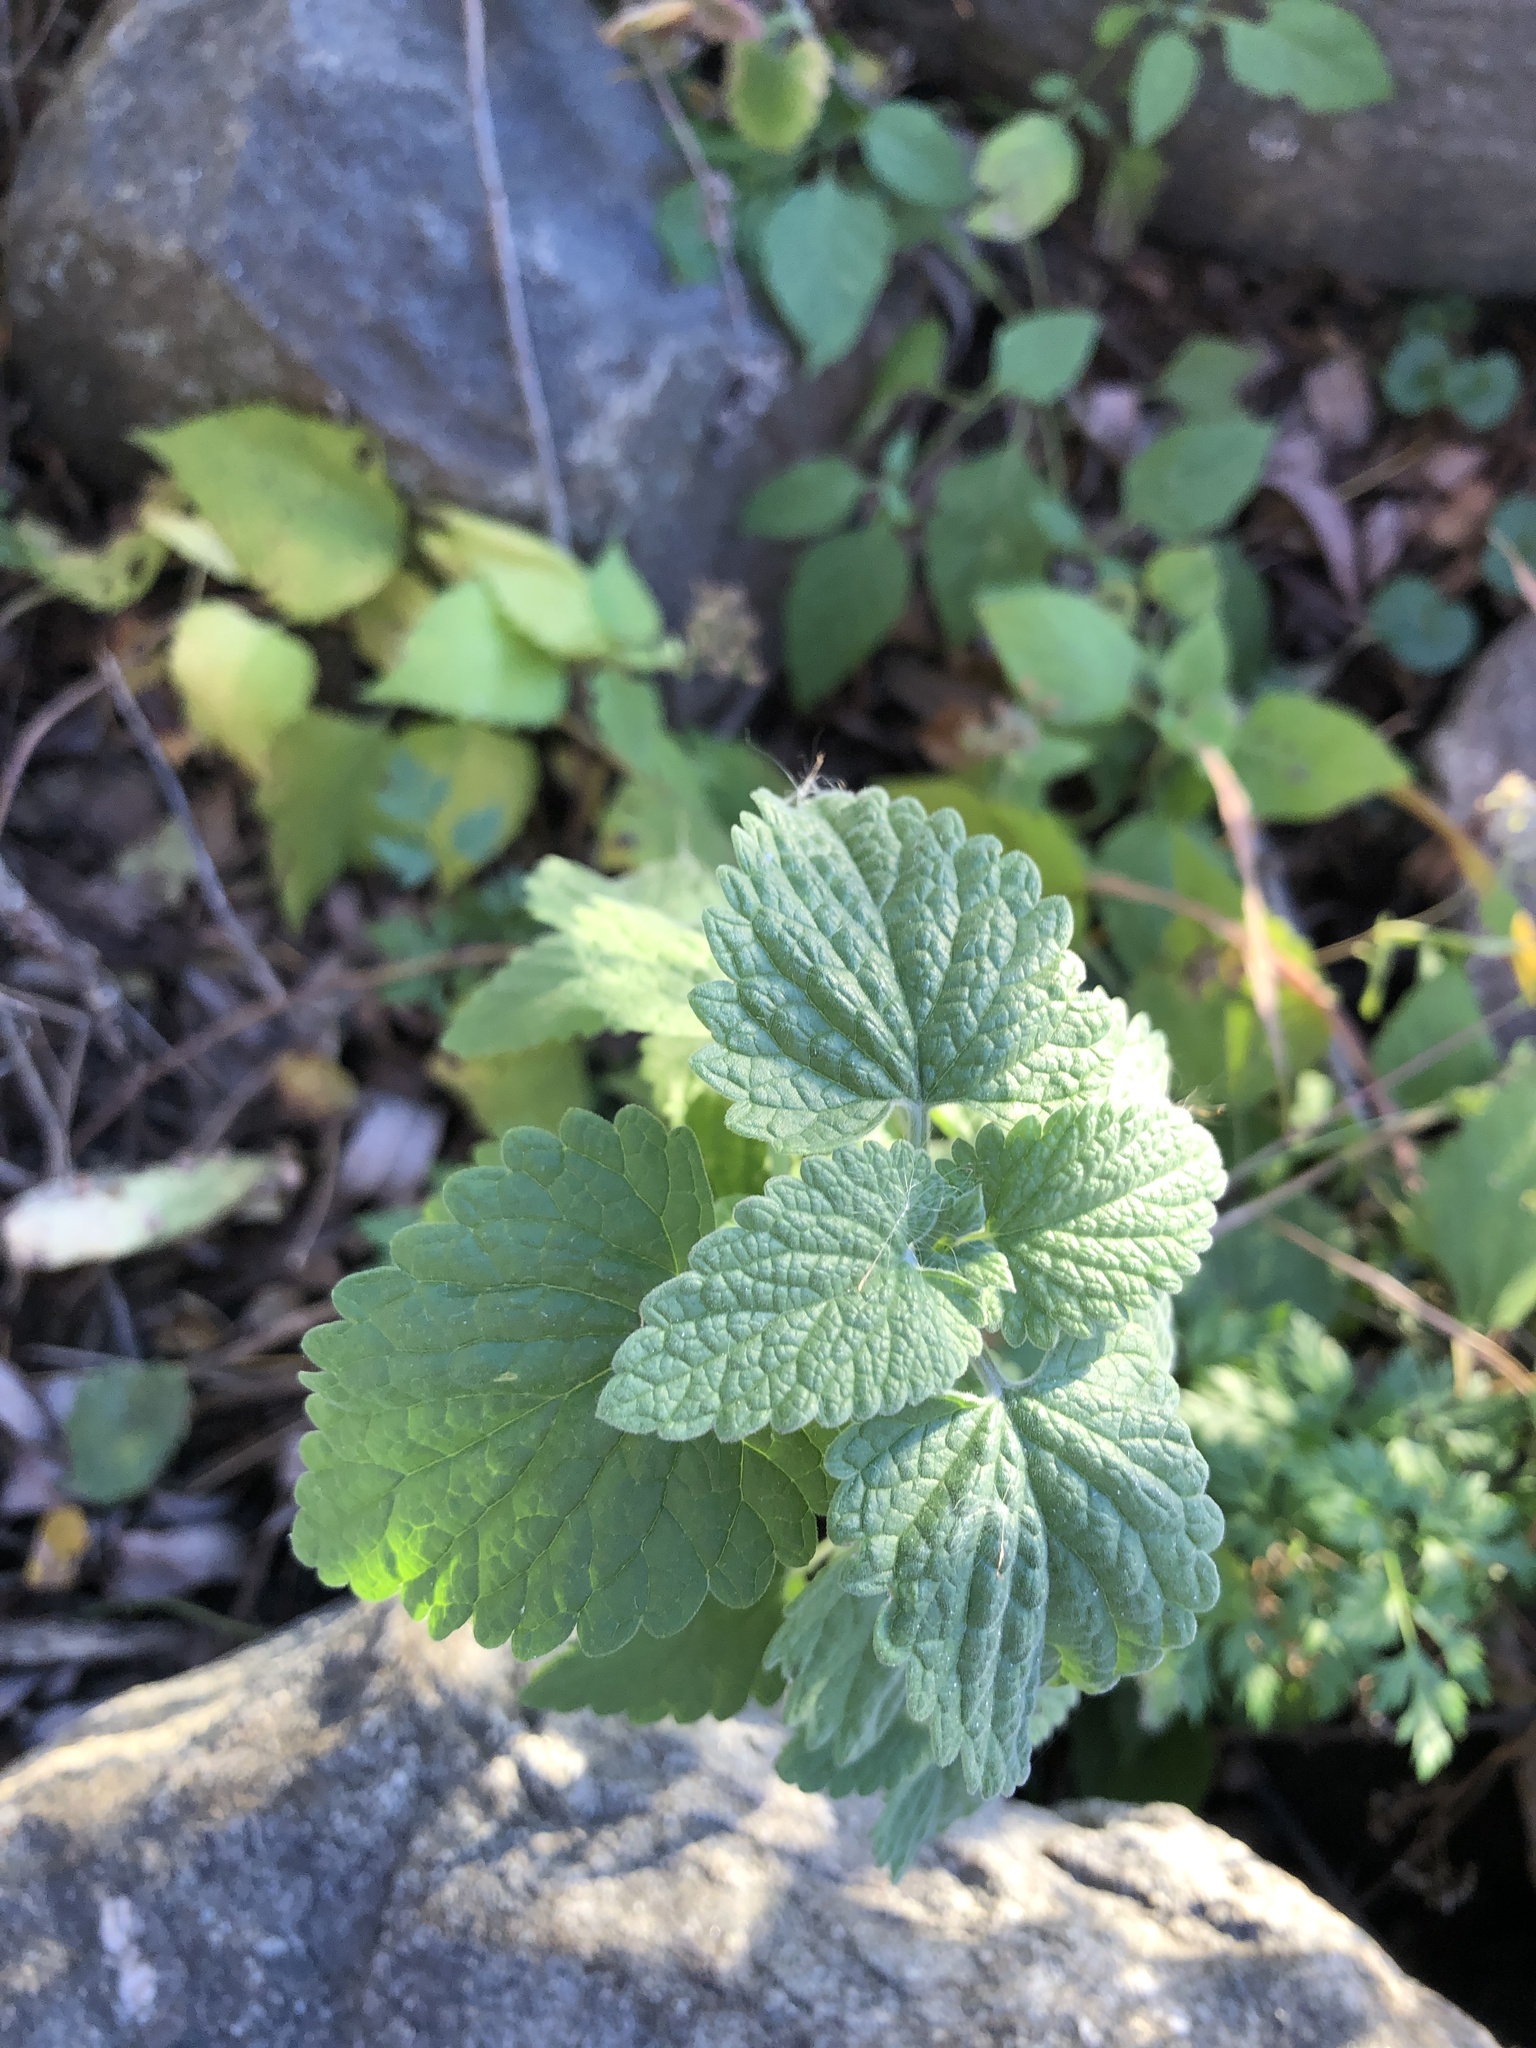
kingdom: Plantae
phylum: Tracheophyta
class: Magnoliopsida
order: Lamiales
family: Lamiaceae
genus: Nepeta
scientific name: Nepeta cataria
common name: Catnip
